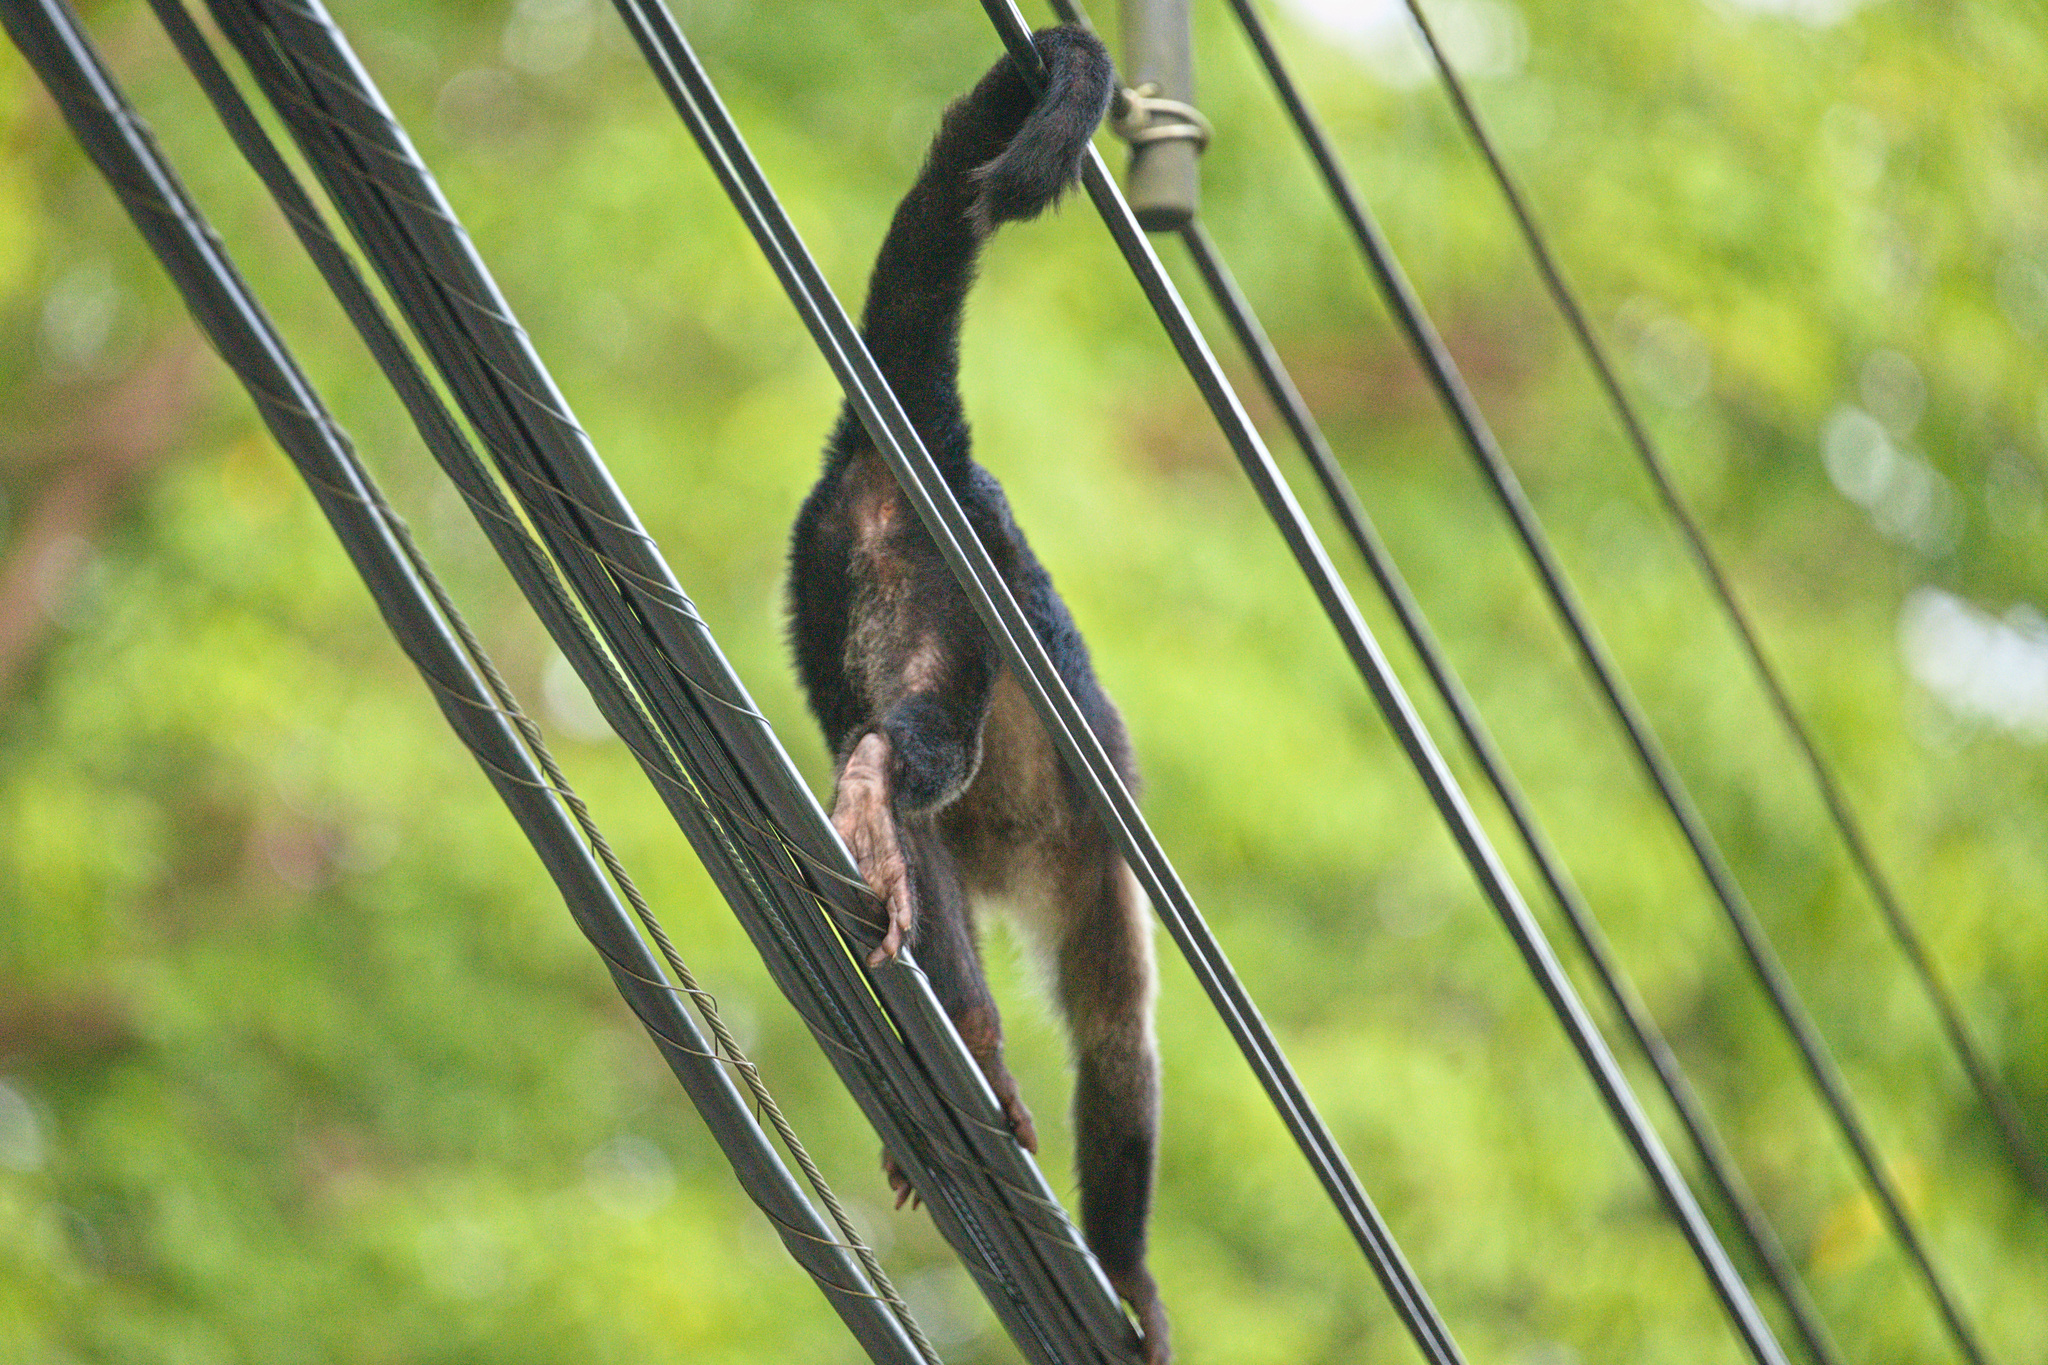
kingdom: Animalia
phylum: Chordata
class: Mammalia
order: Primates
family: Cebidae
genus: Cebus
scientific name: Cebus imitator
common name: Panamanian white-faced capuchin
